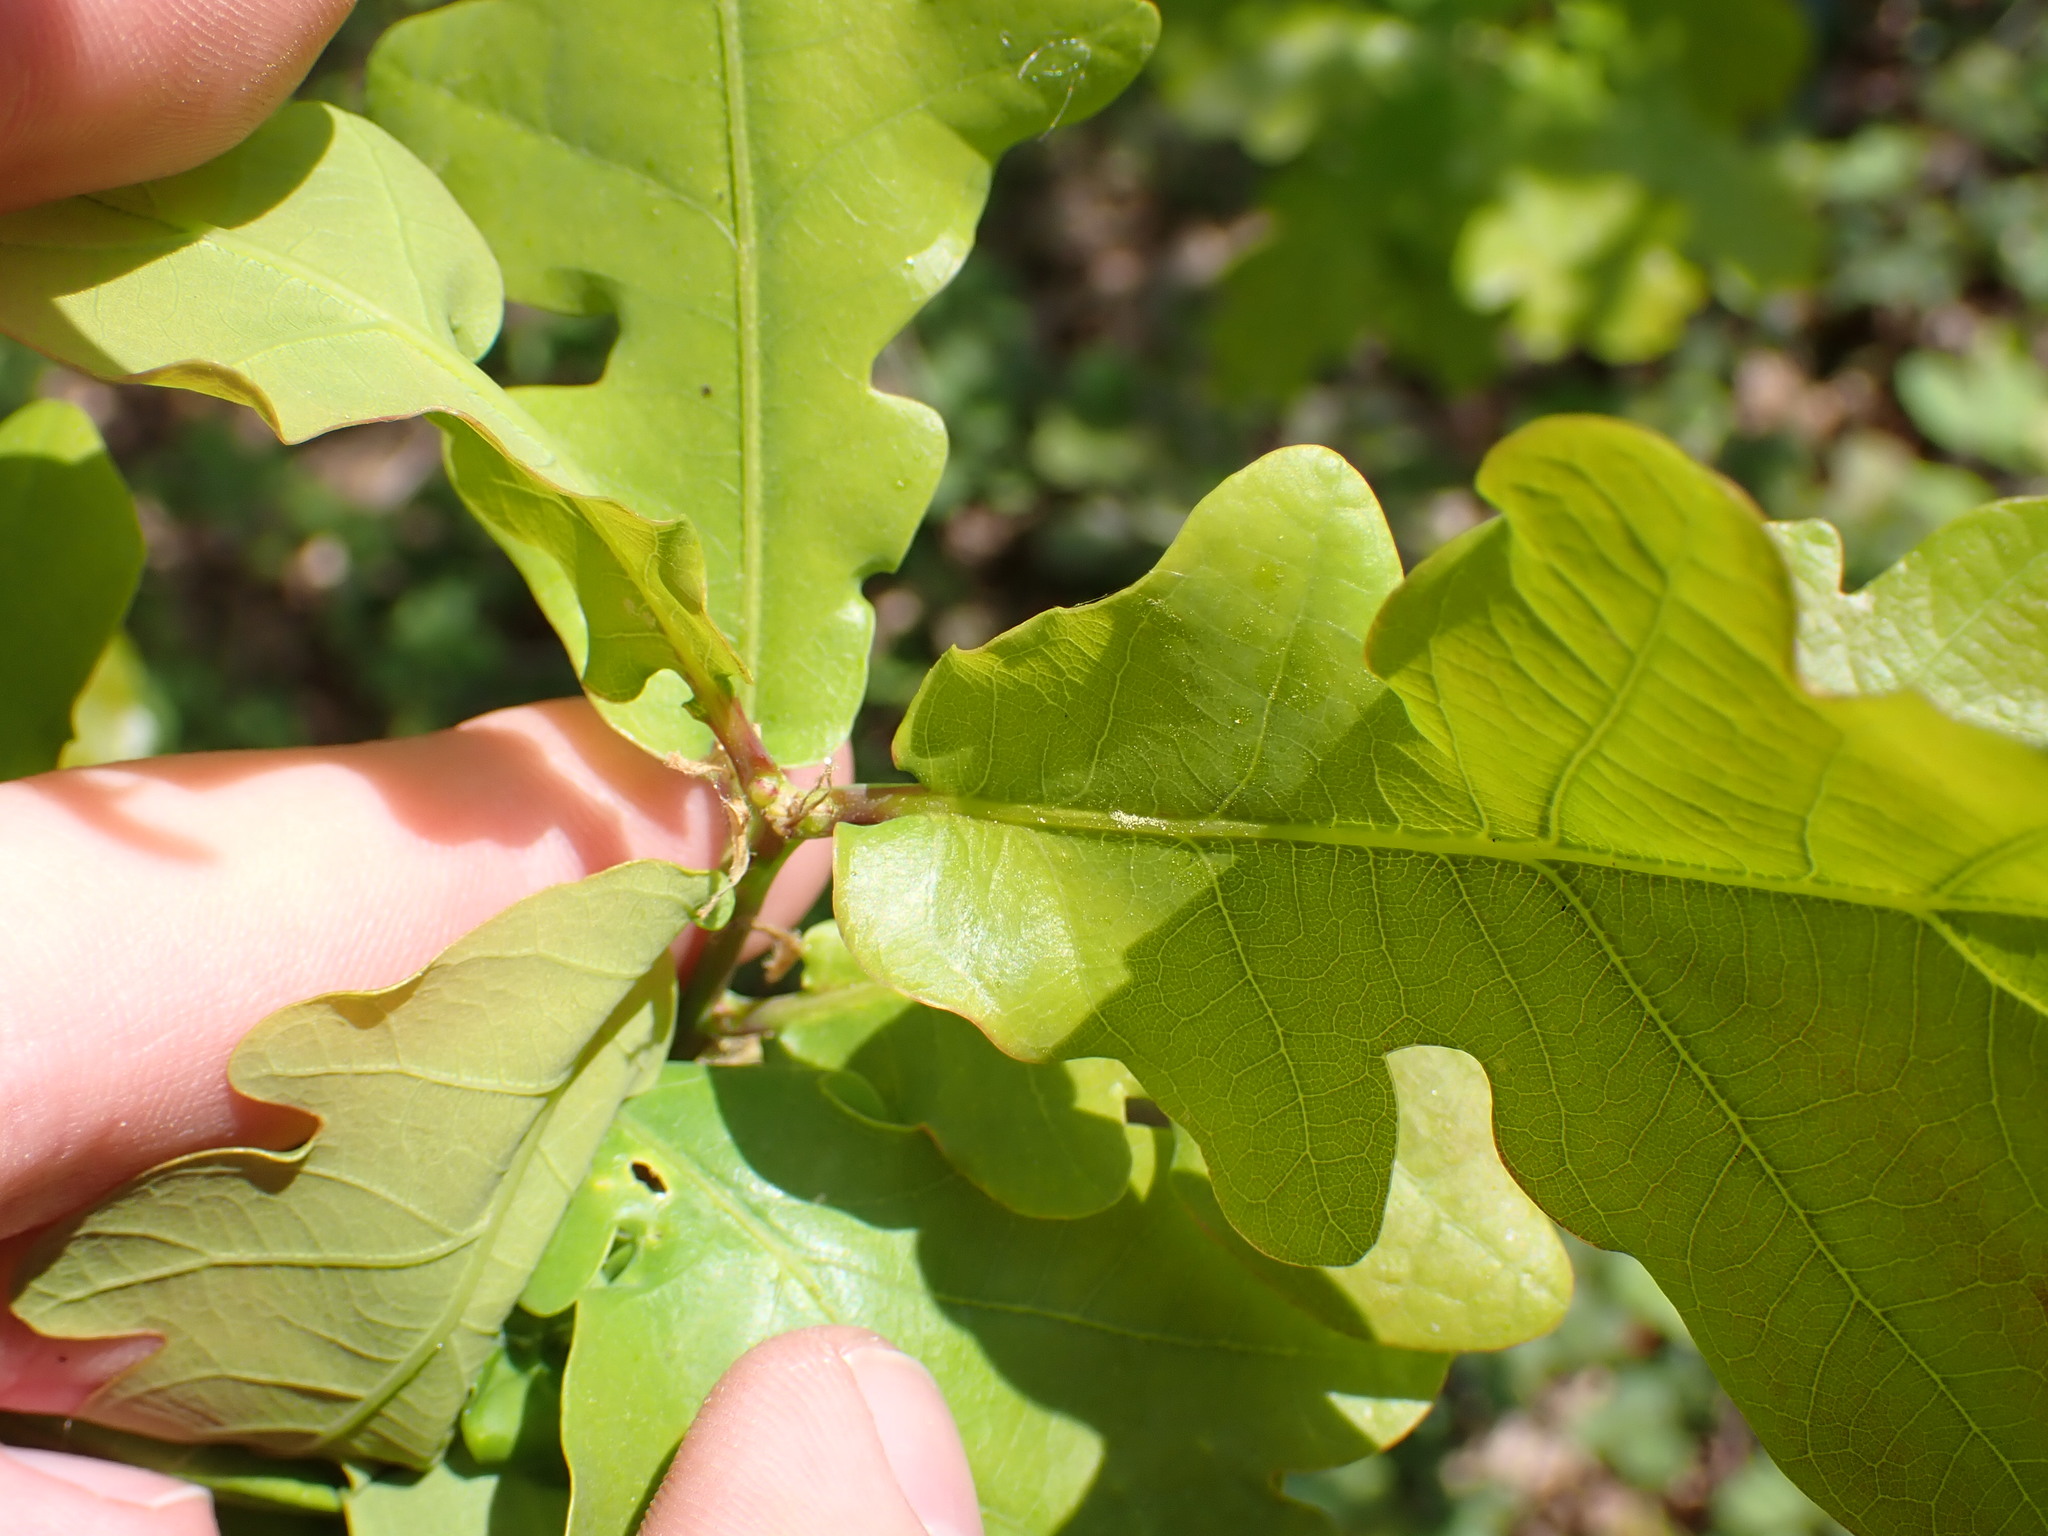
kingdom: Plantae
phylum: Tracheophyta
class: Magnoliopsida
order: Fagales
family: Fagaceae
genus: Quercus
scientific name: Quercus robur
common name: Pedunculate oak
